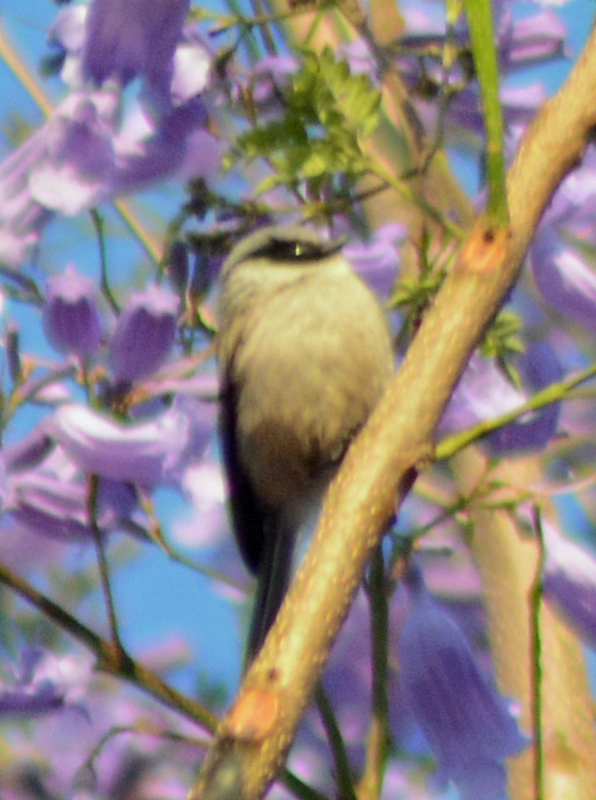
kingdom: Animalia
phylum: Chordata
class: Aves
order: Passeriformes
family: Aegithalidae
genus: Psaltriparus
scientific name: Psaltriparus minimus
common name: American bushtit
